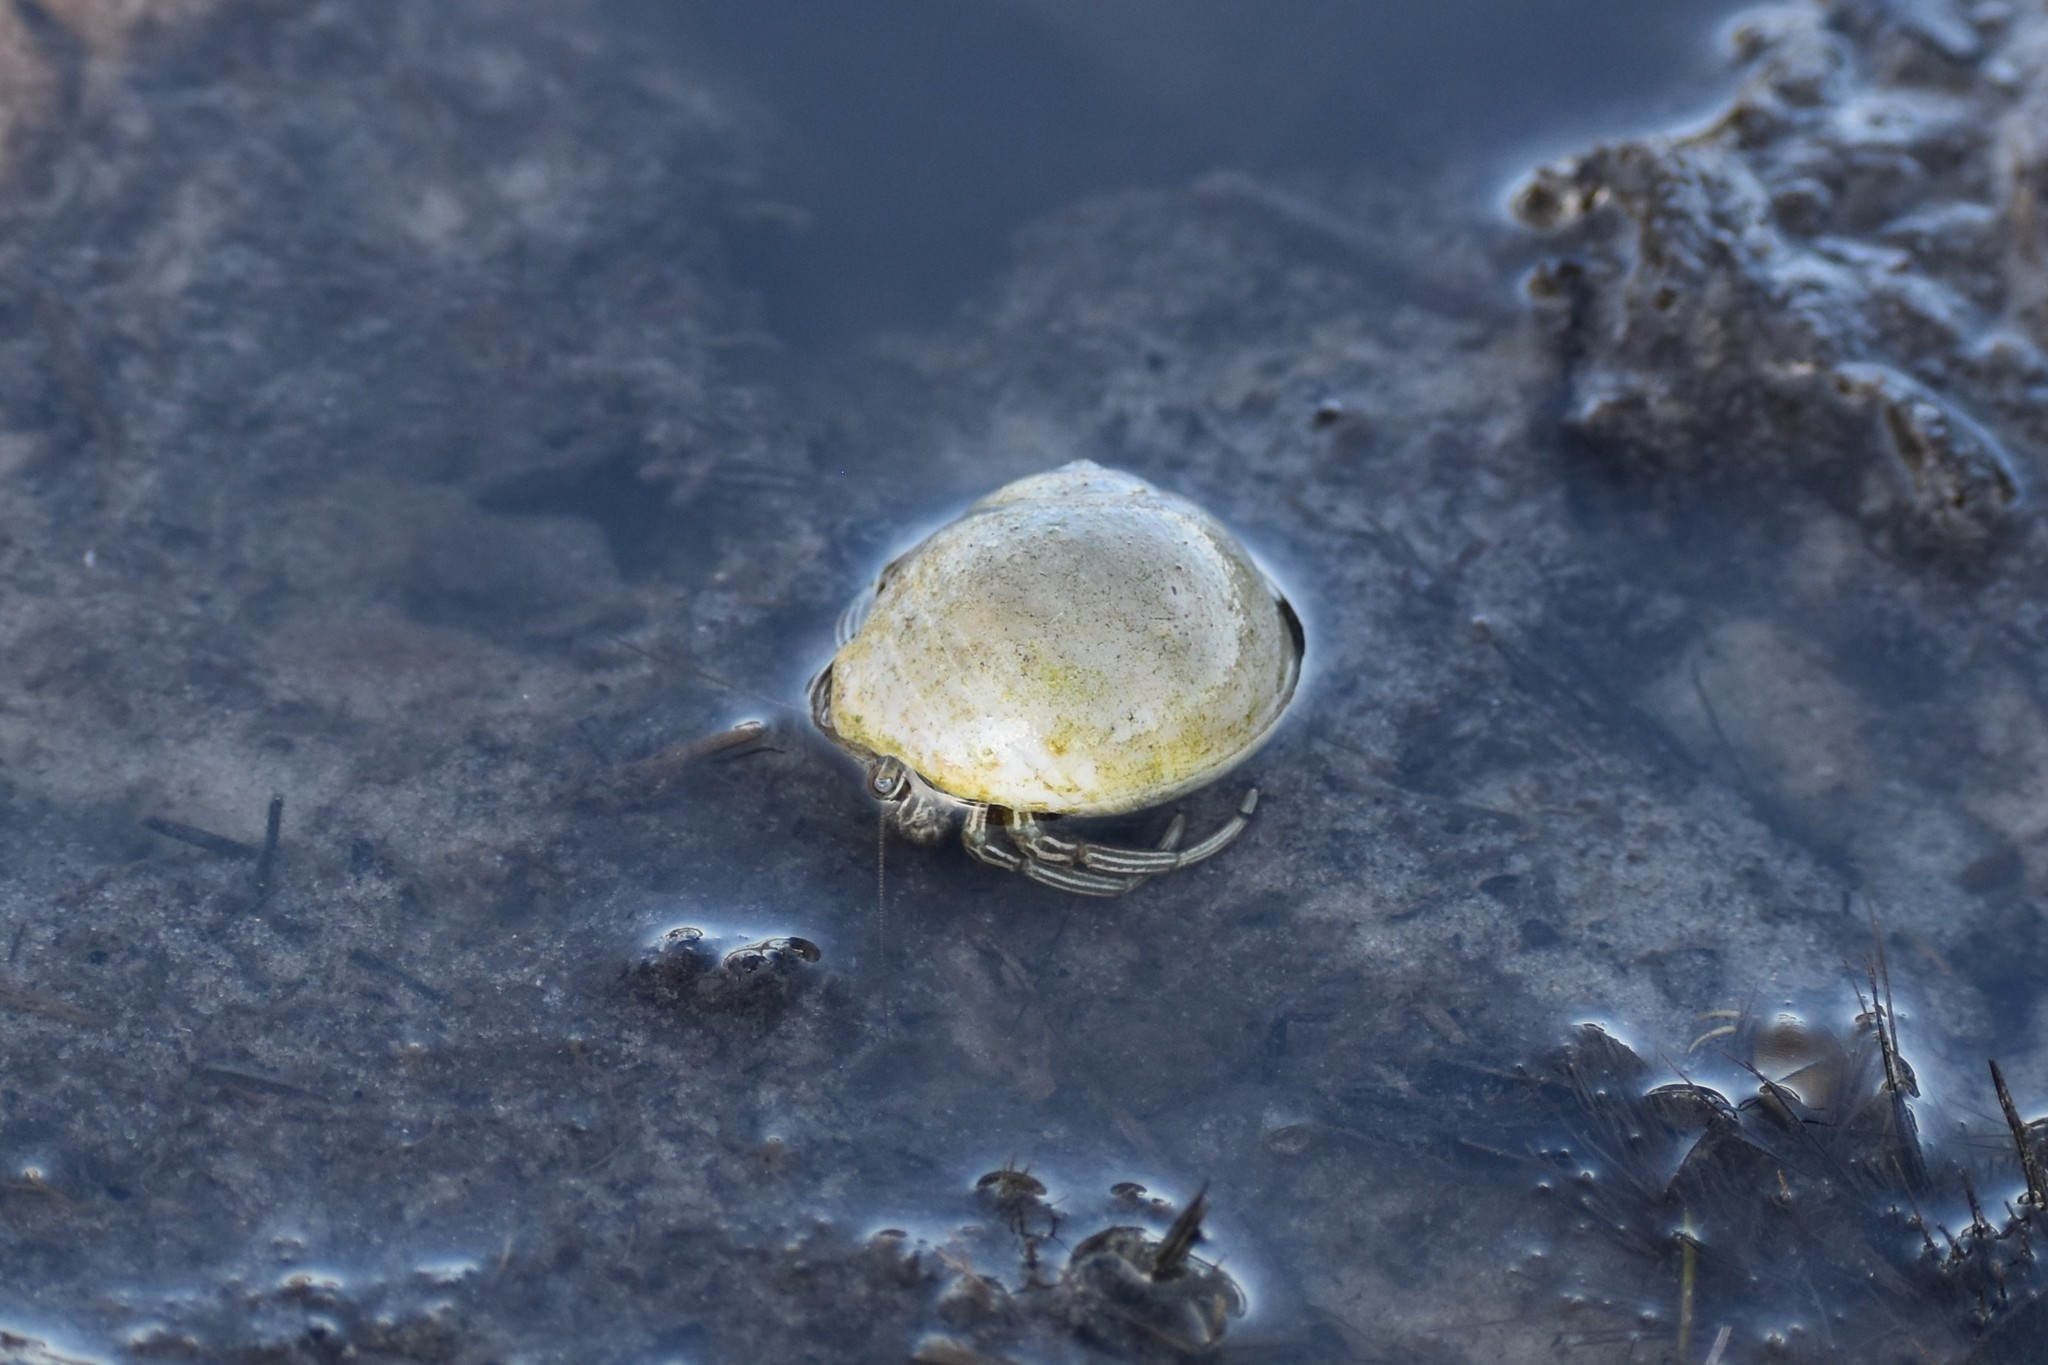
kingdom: Animalia
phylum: Arthropoda
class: Malacostraca
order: Decapoda
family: Diogenidae
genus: Clibanarius
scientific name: Clibanarius vittatus
